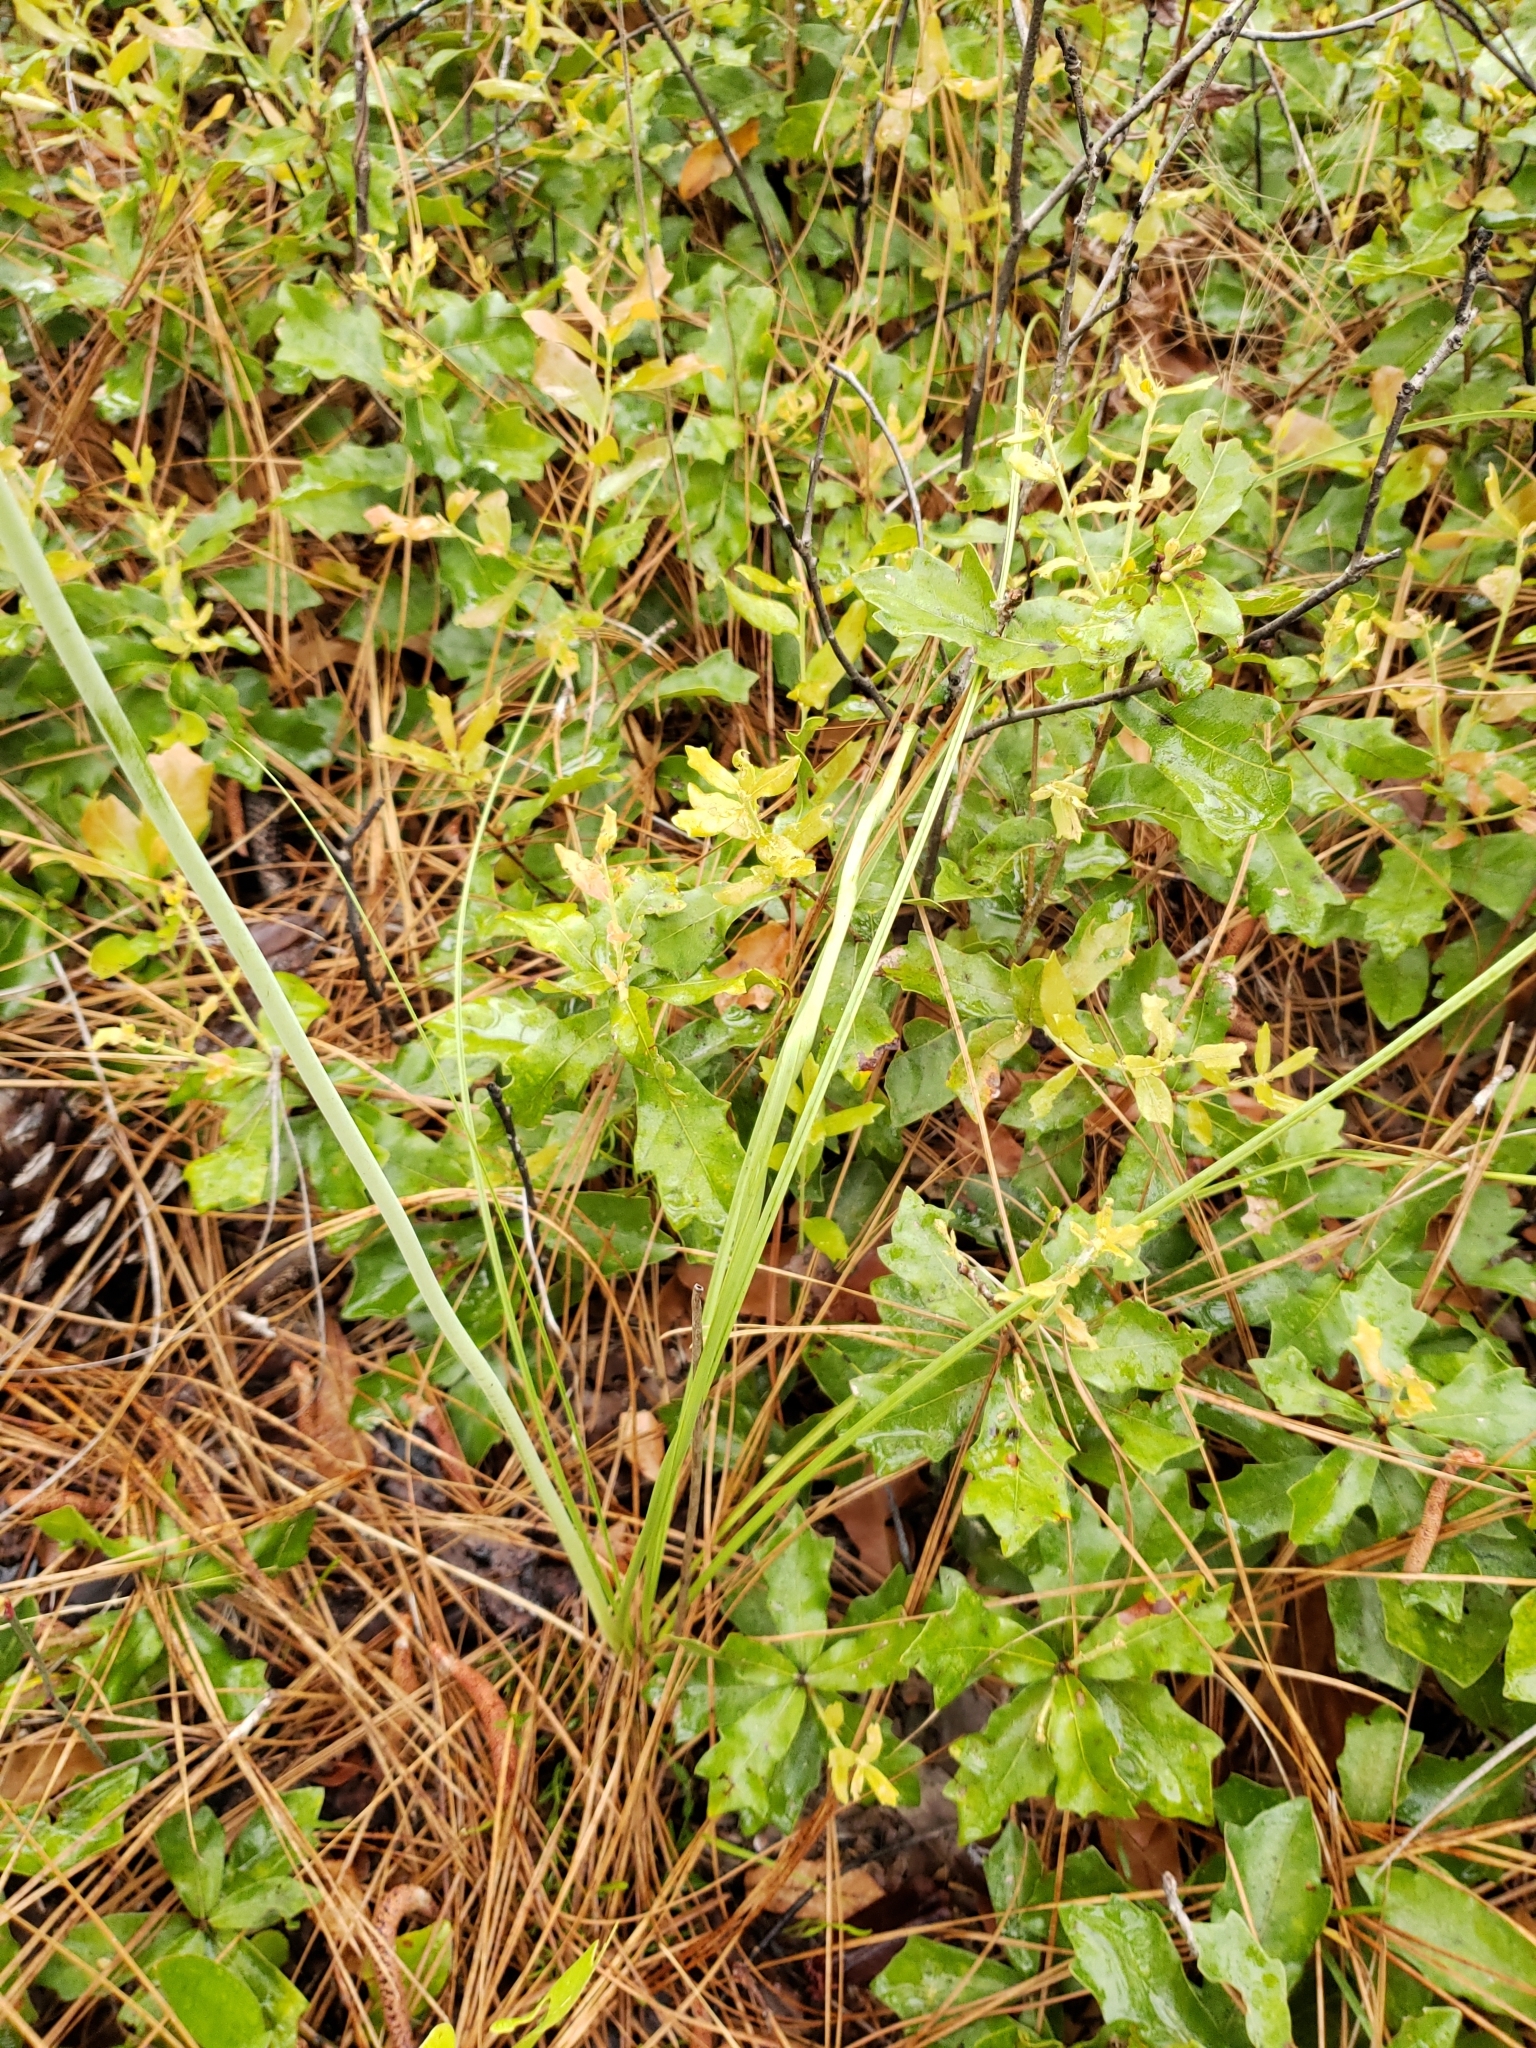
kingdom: Plantae
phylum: Tracheophyta
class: Liliopsida
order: Liliales
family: Melanthiaceae
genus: Schoenocaulon
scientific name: Schoenocaulon dubium
